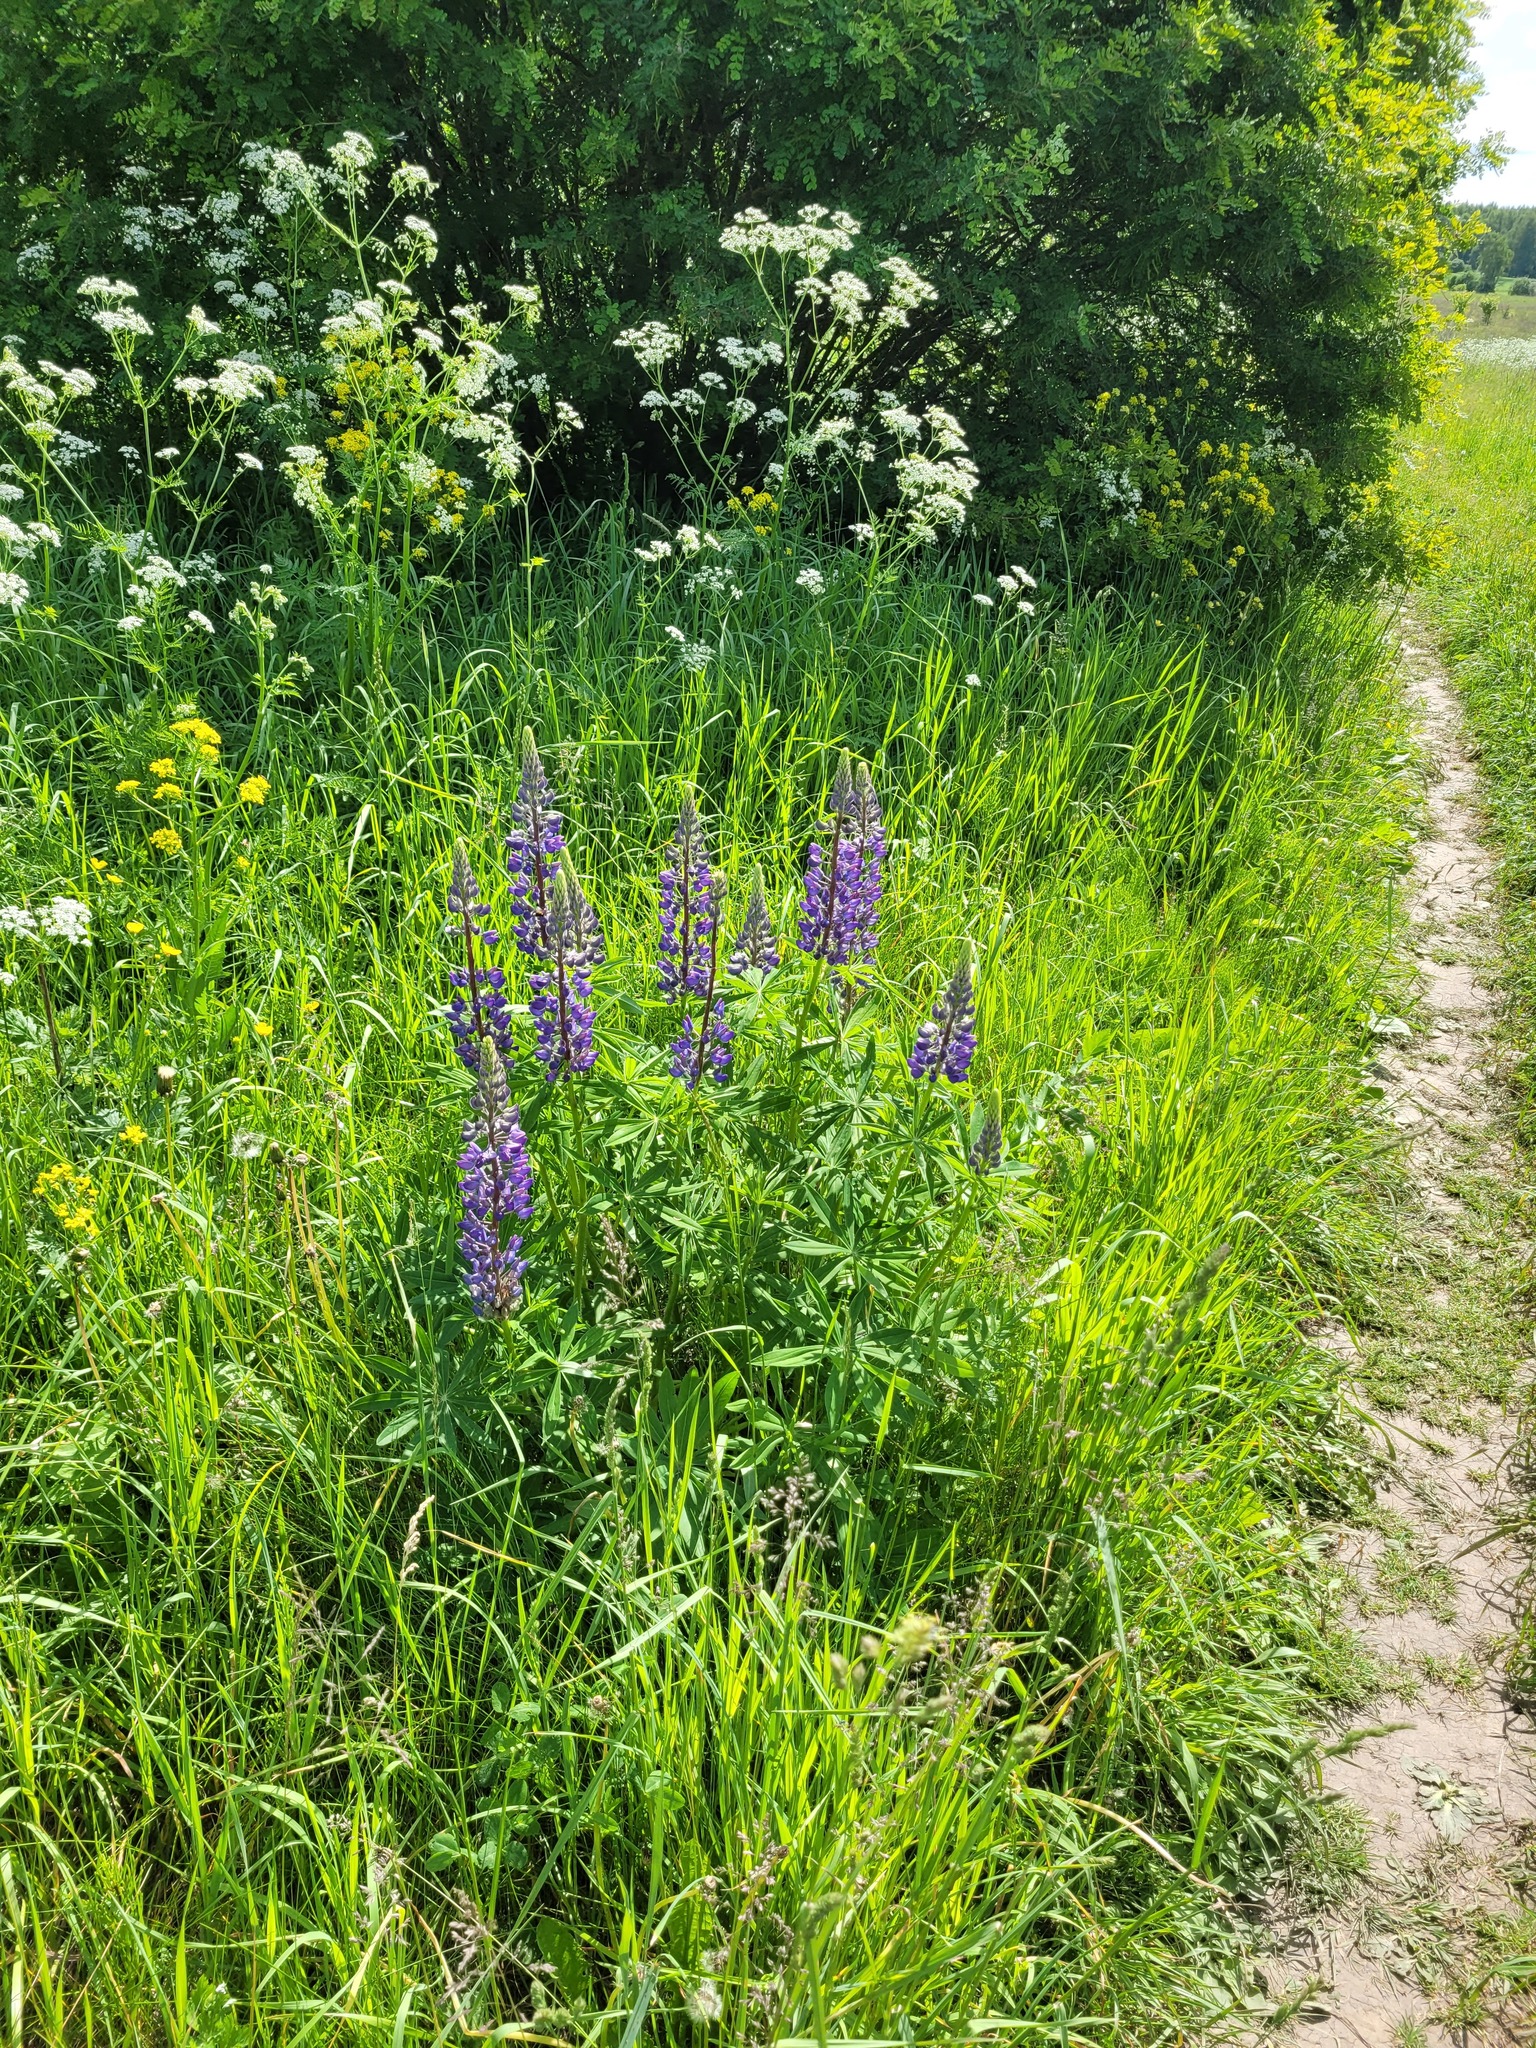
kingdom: Plantae
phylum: Tracheophyta
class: Magnoliopsida
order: Fabales
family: Fabaceae
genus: Lupinus
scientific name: Lupinus polyphyllus
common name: Garden lupin
